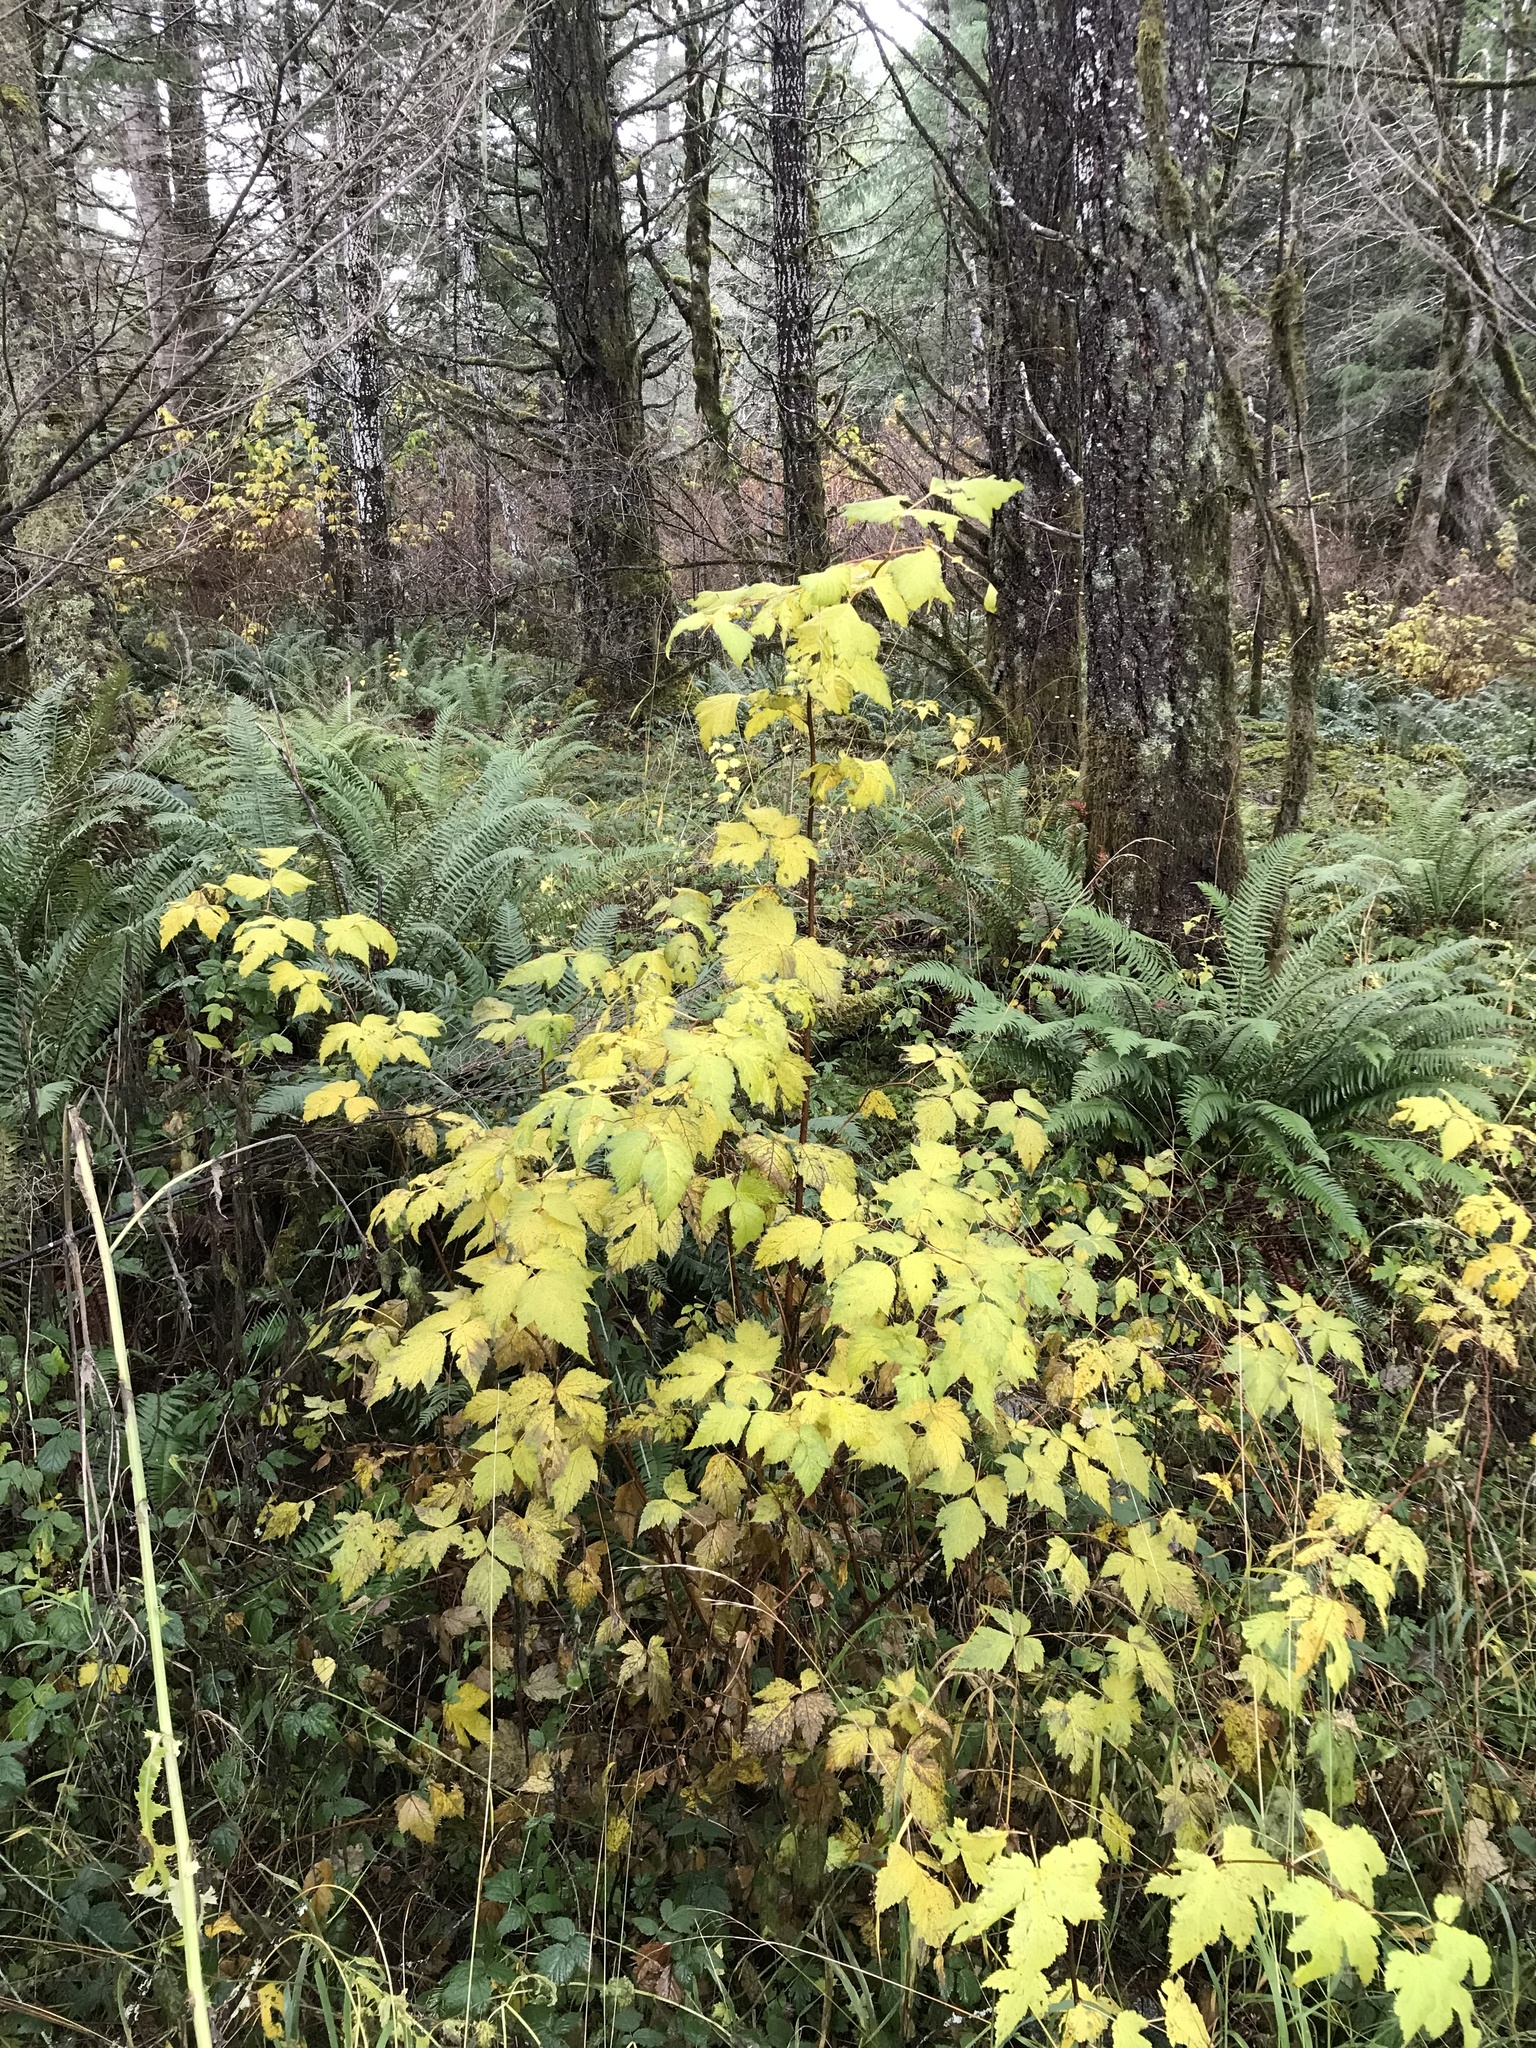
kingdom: Plantae
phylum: Tracheophyta
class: Magnoliopsida
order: Rosales
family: Rosaceae
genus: Rubus
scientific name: Rubus spectabilis
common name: Salmonberry
